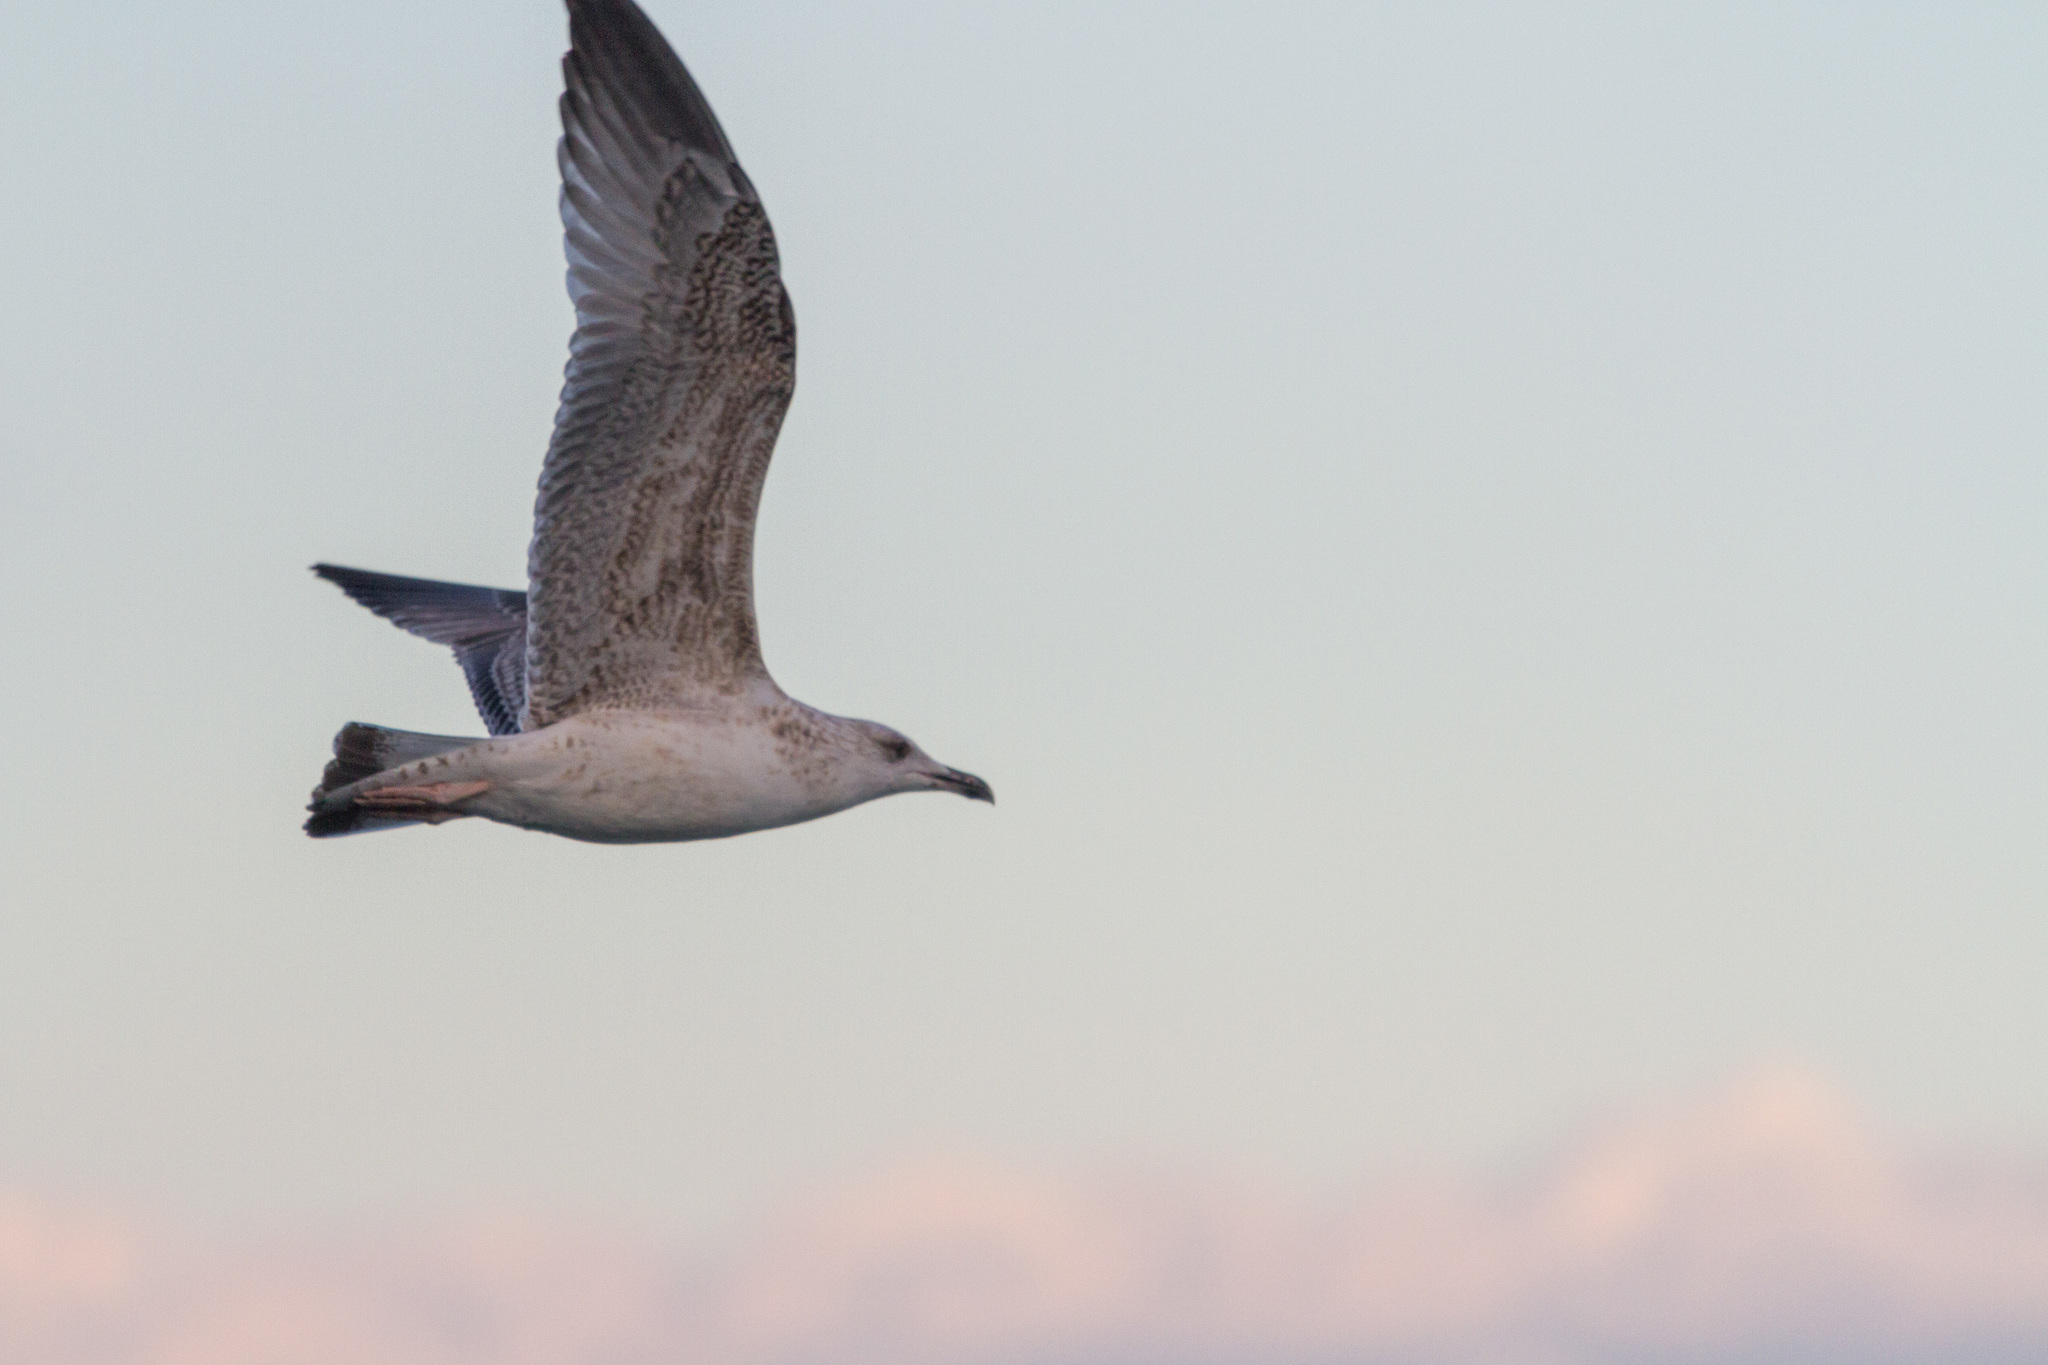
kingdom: Animalia
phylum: Chordata
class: Aves
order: Charadriiformes
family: Laridae
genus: Larus
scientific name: Larus michahellis
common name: Yellow-legged gull
